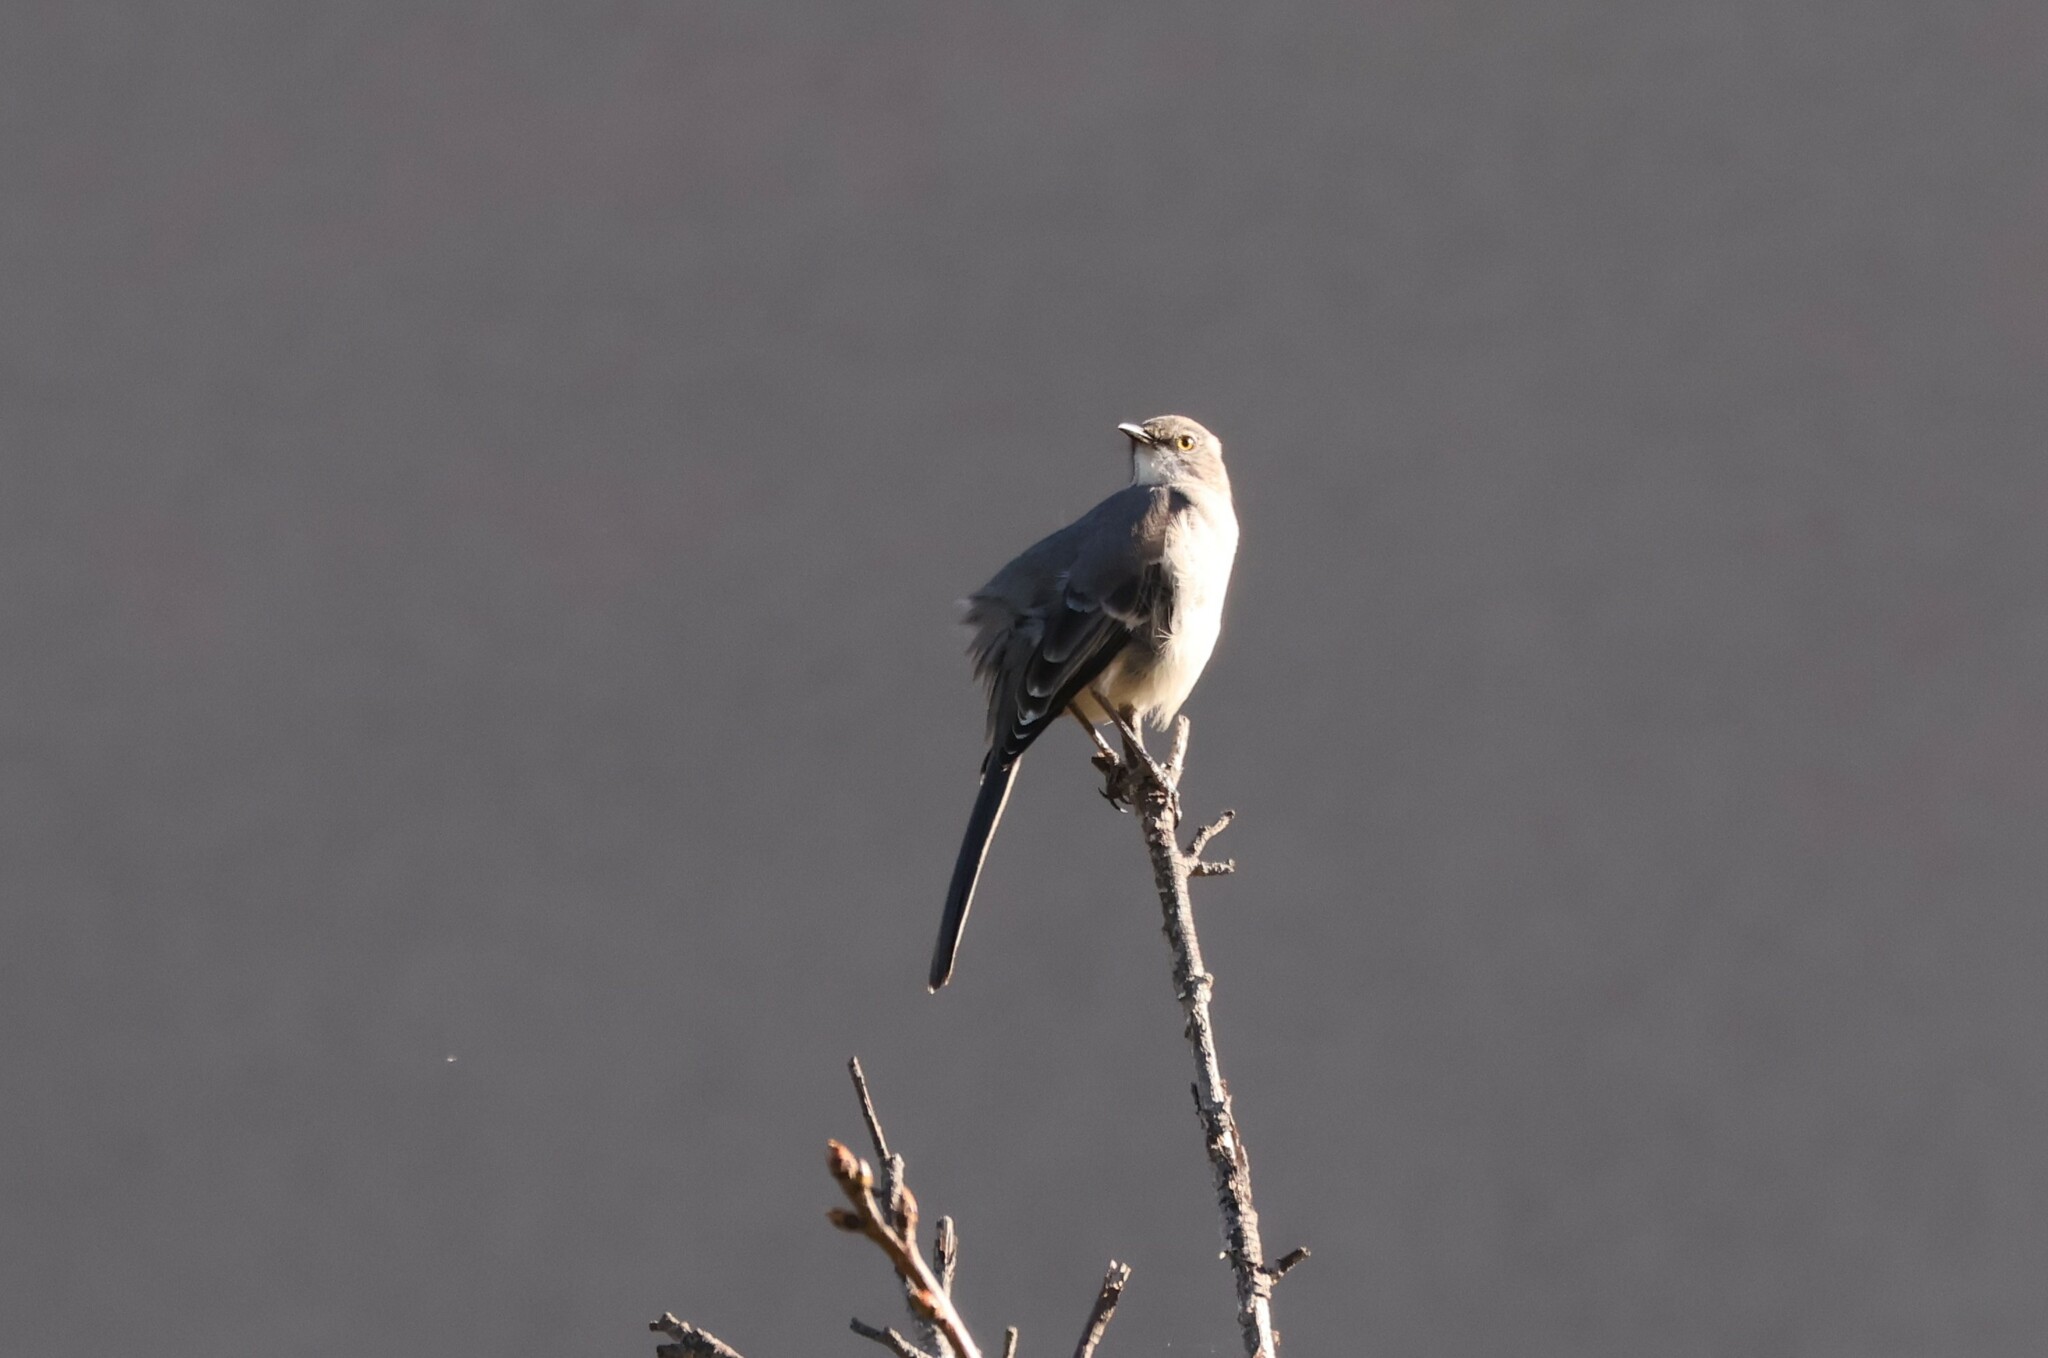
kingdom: Animalia
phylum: Chordata
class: Aves
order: Passeriformes
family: Mimidae
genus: Mimus
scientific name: Mimus polyglottos
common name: Northern mockingbird
